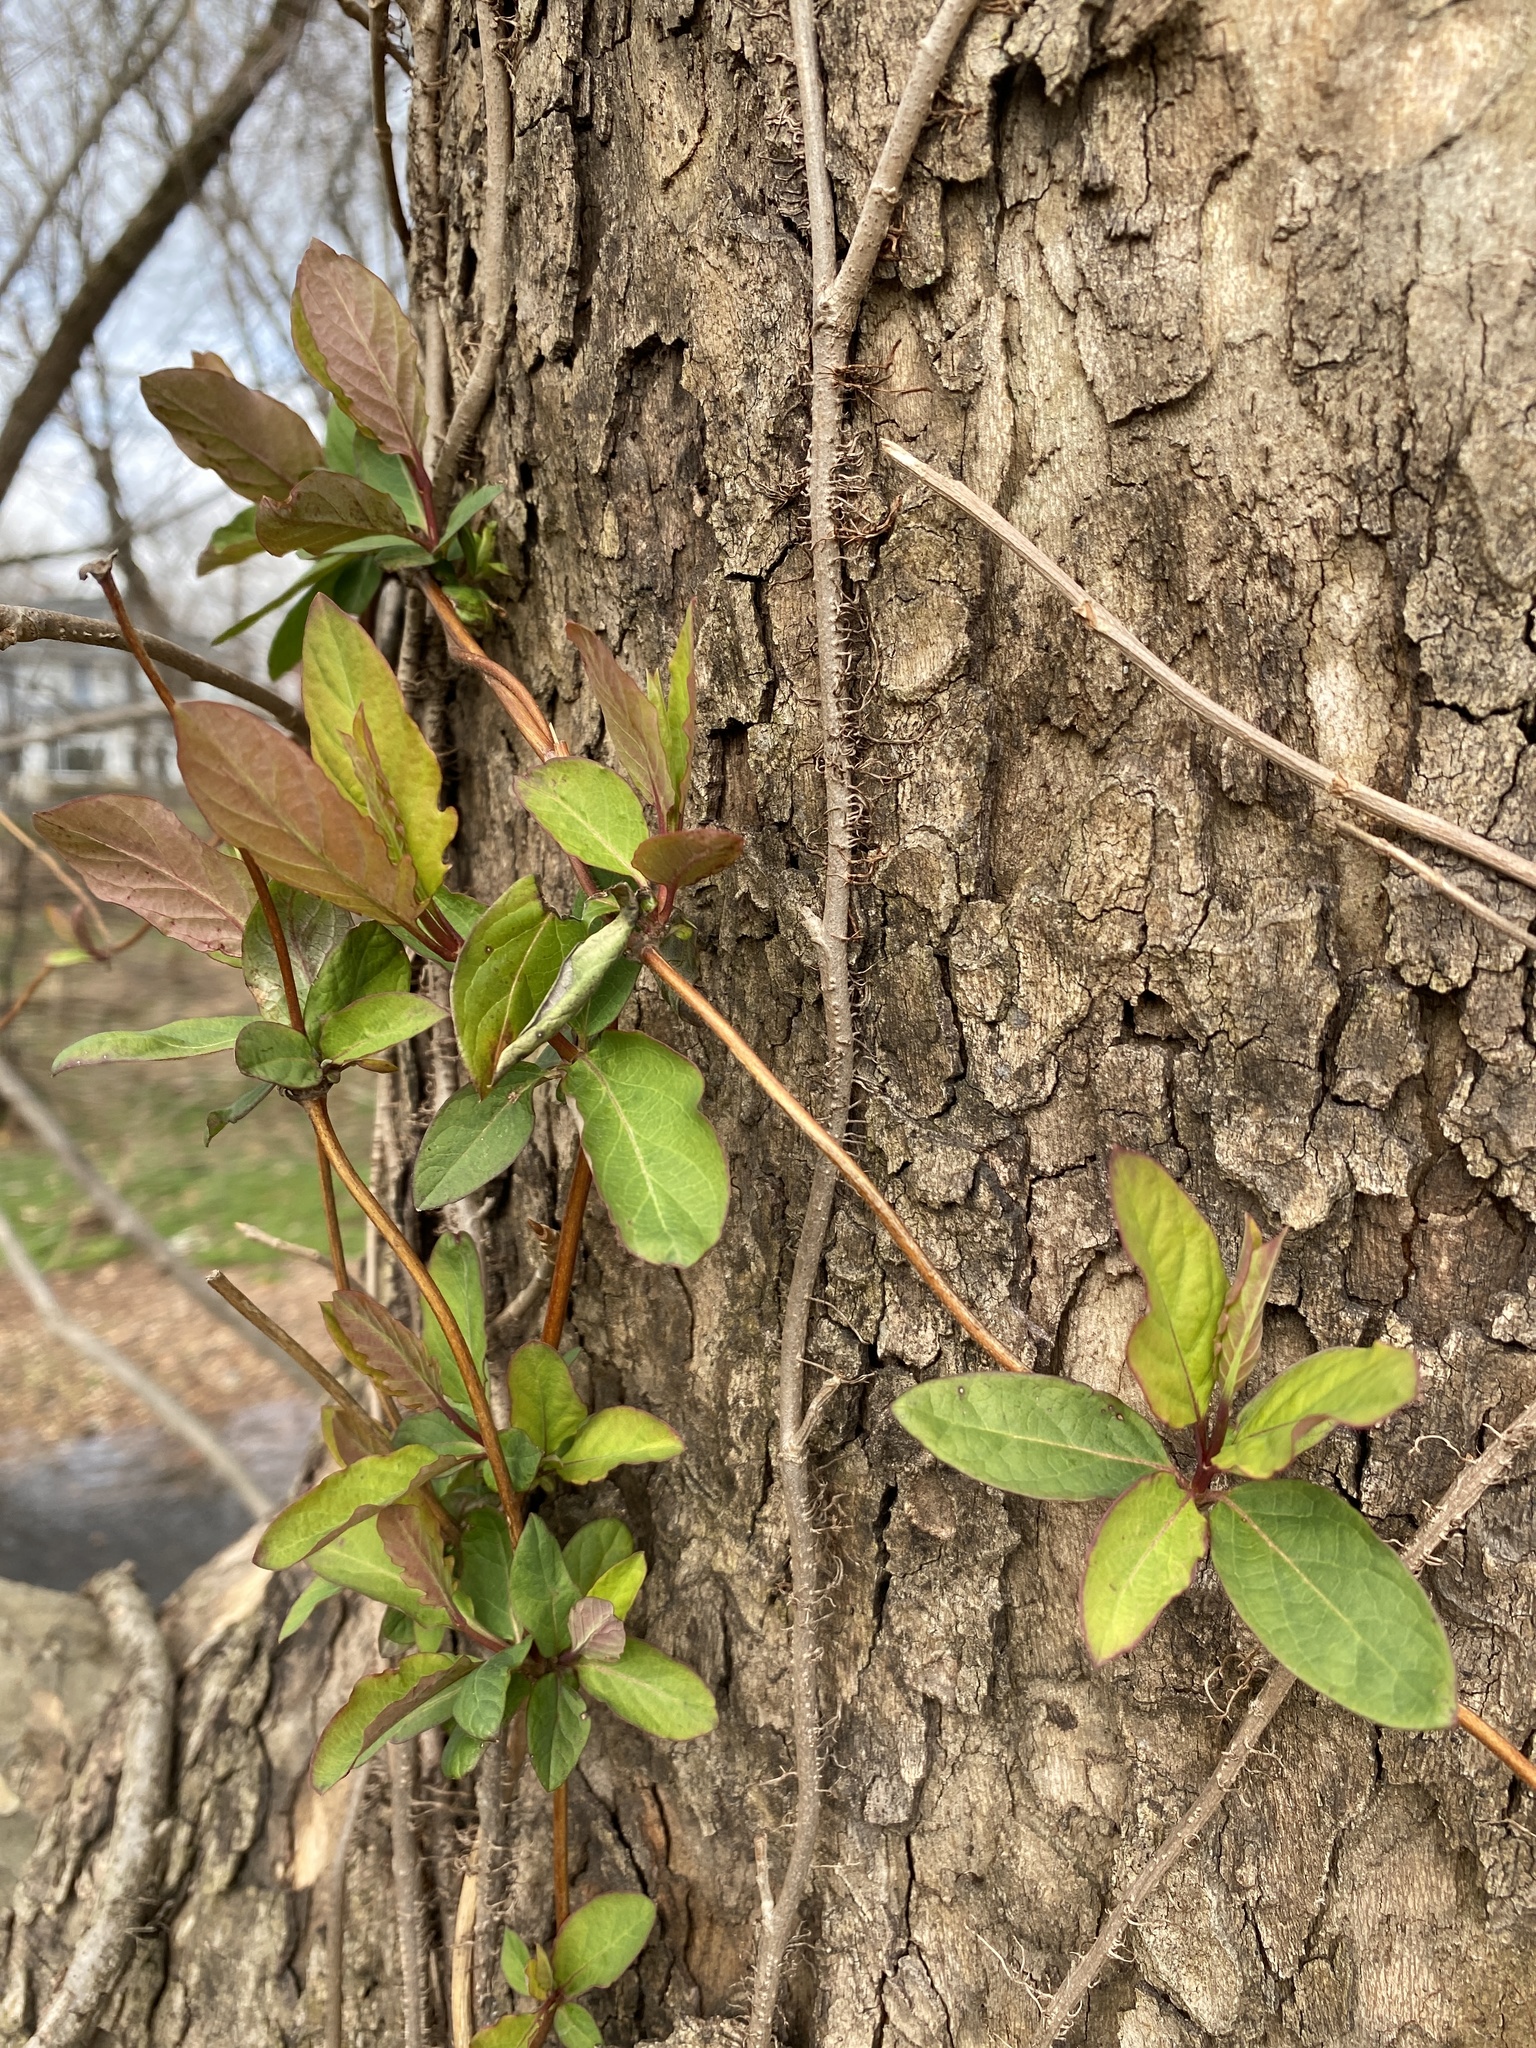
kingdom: Plantae
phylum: Tracheophyta
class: Magnoliopsida
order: Dipsacales
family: Caprifoliaceae
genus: Lonicera
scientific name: Lonicera japonica
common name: Japanese honeysuckle
